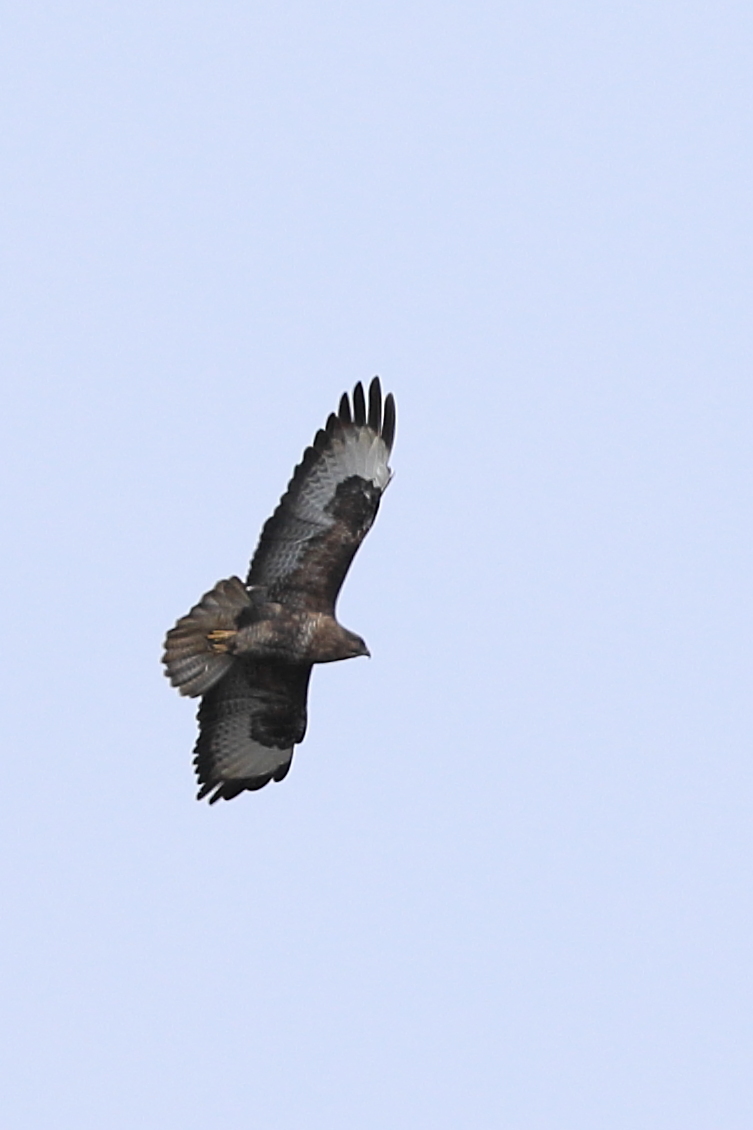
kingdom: Animalia
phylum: Chordata
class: Aves
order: Accipitriformes
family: Accipitridae
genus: Buteo
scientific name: Buteo buteo
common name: Common buzzard
